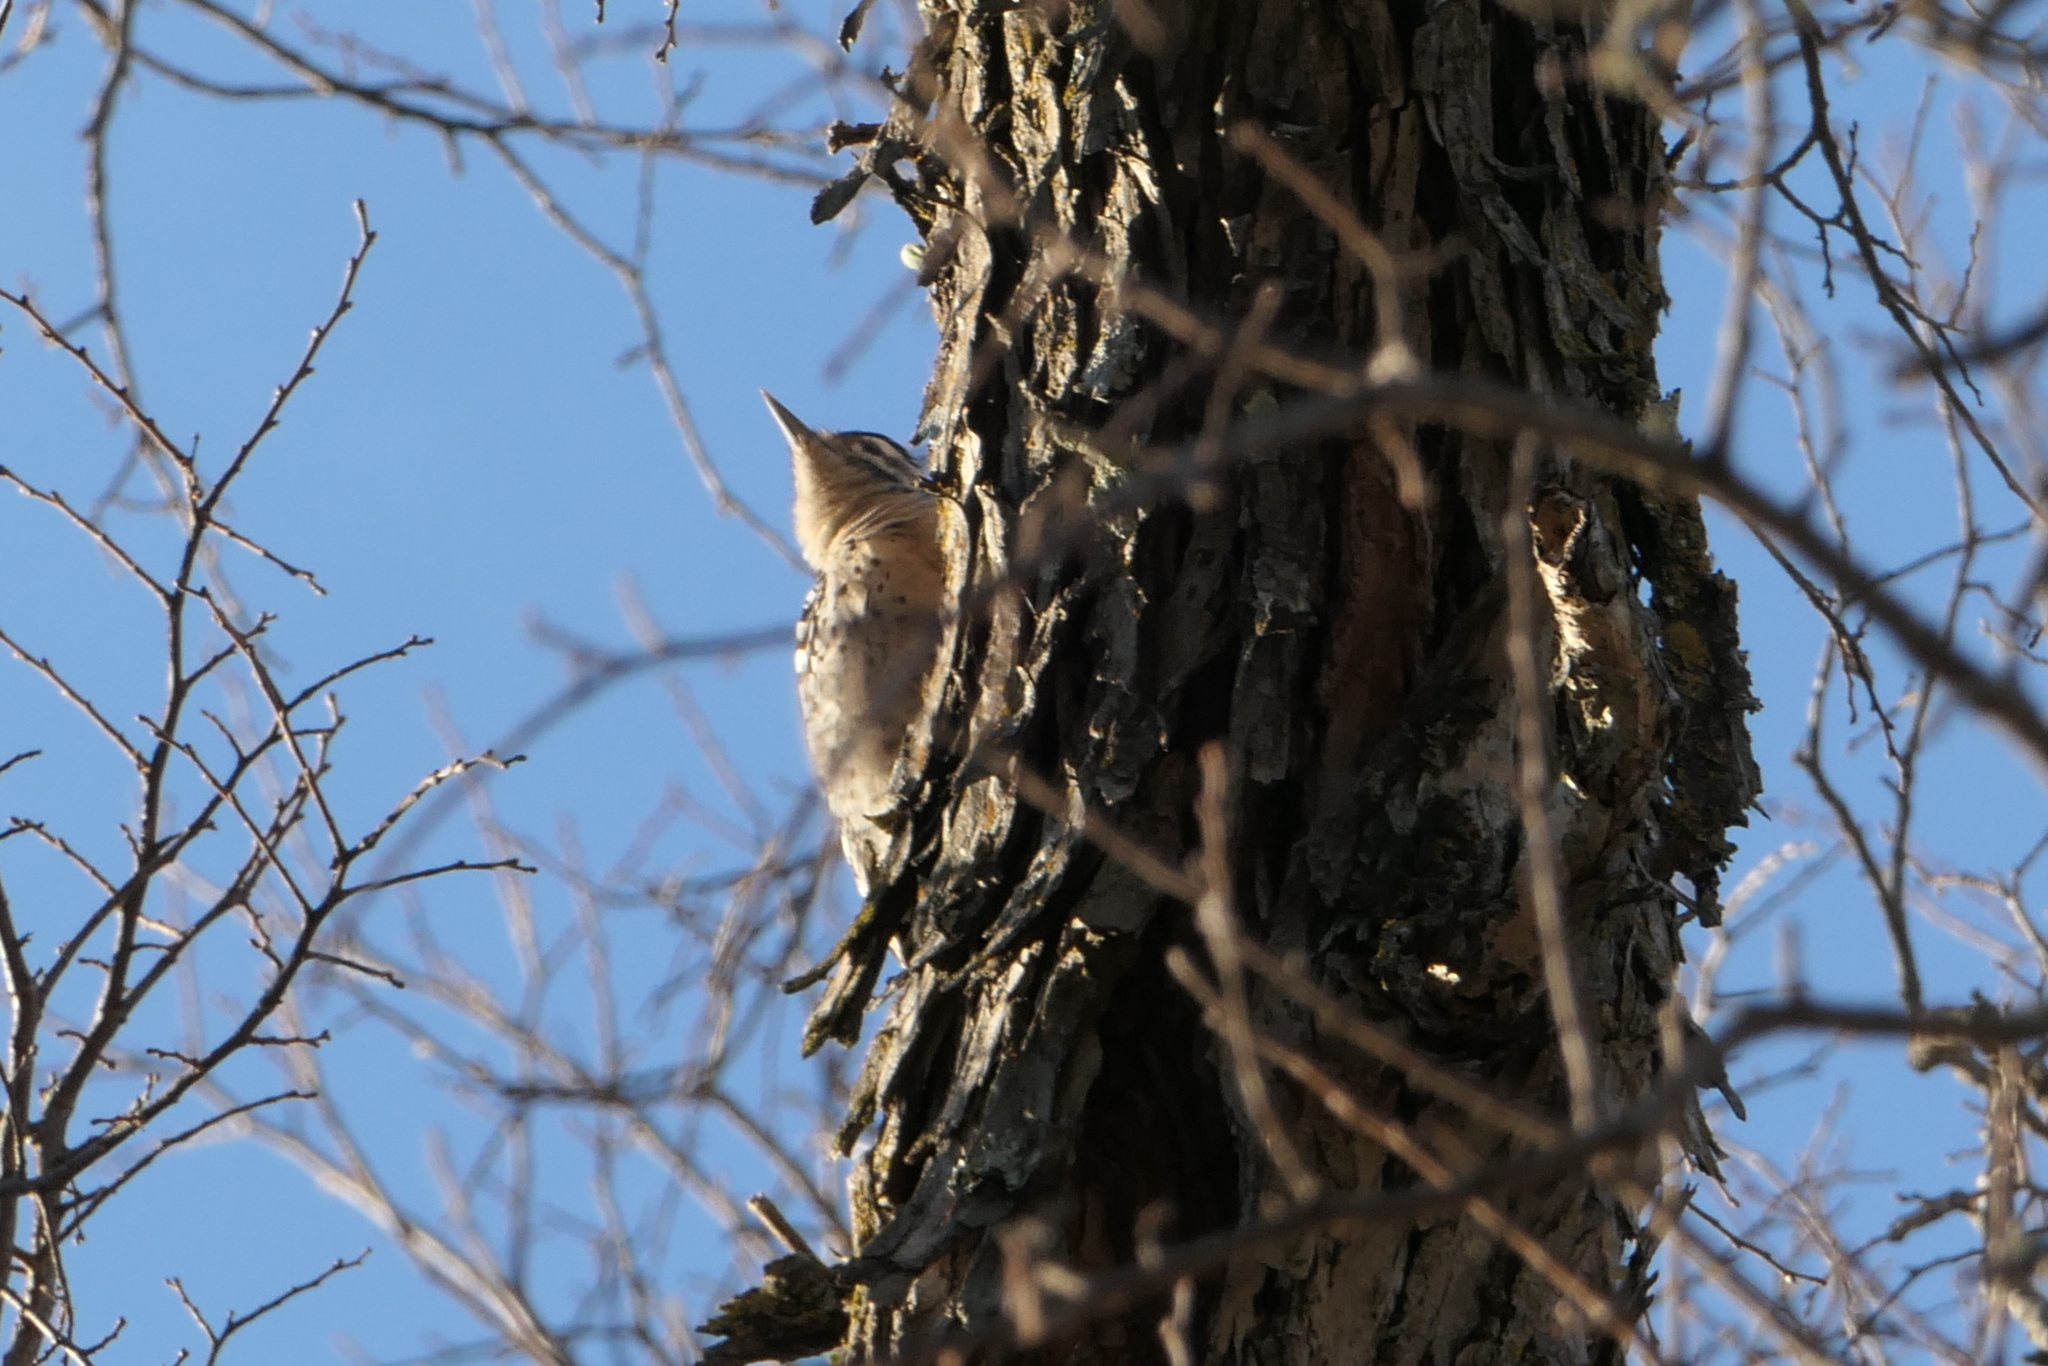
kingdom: Animalia
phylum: Chordata
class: Aves
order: Piciformes
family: Picidae
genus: Dryobates
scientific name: Dryobates scalaris
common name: Ladder-backed woodpecker
